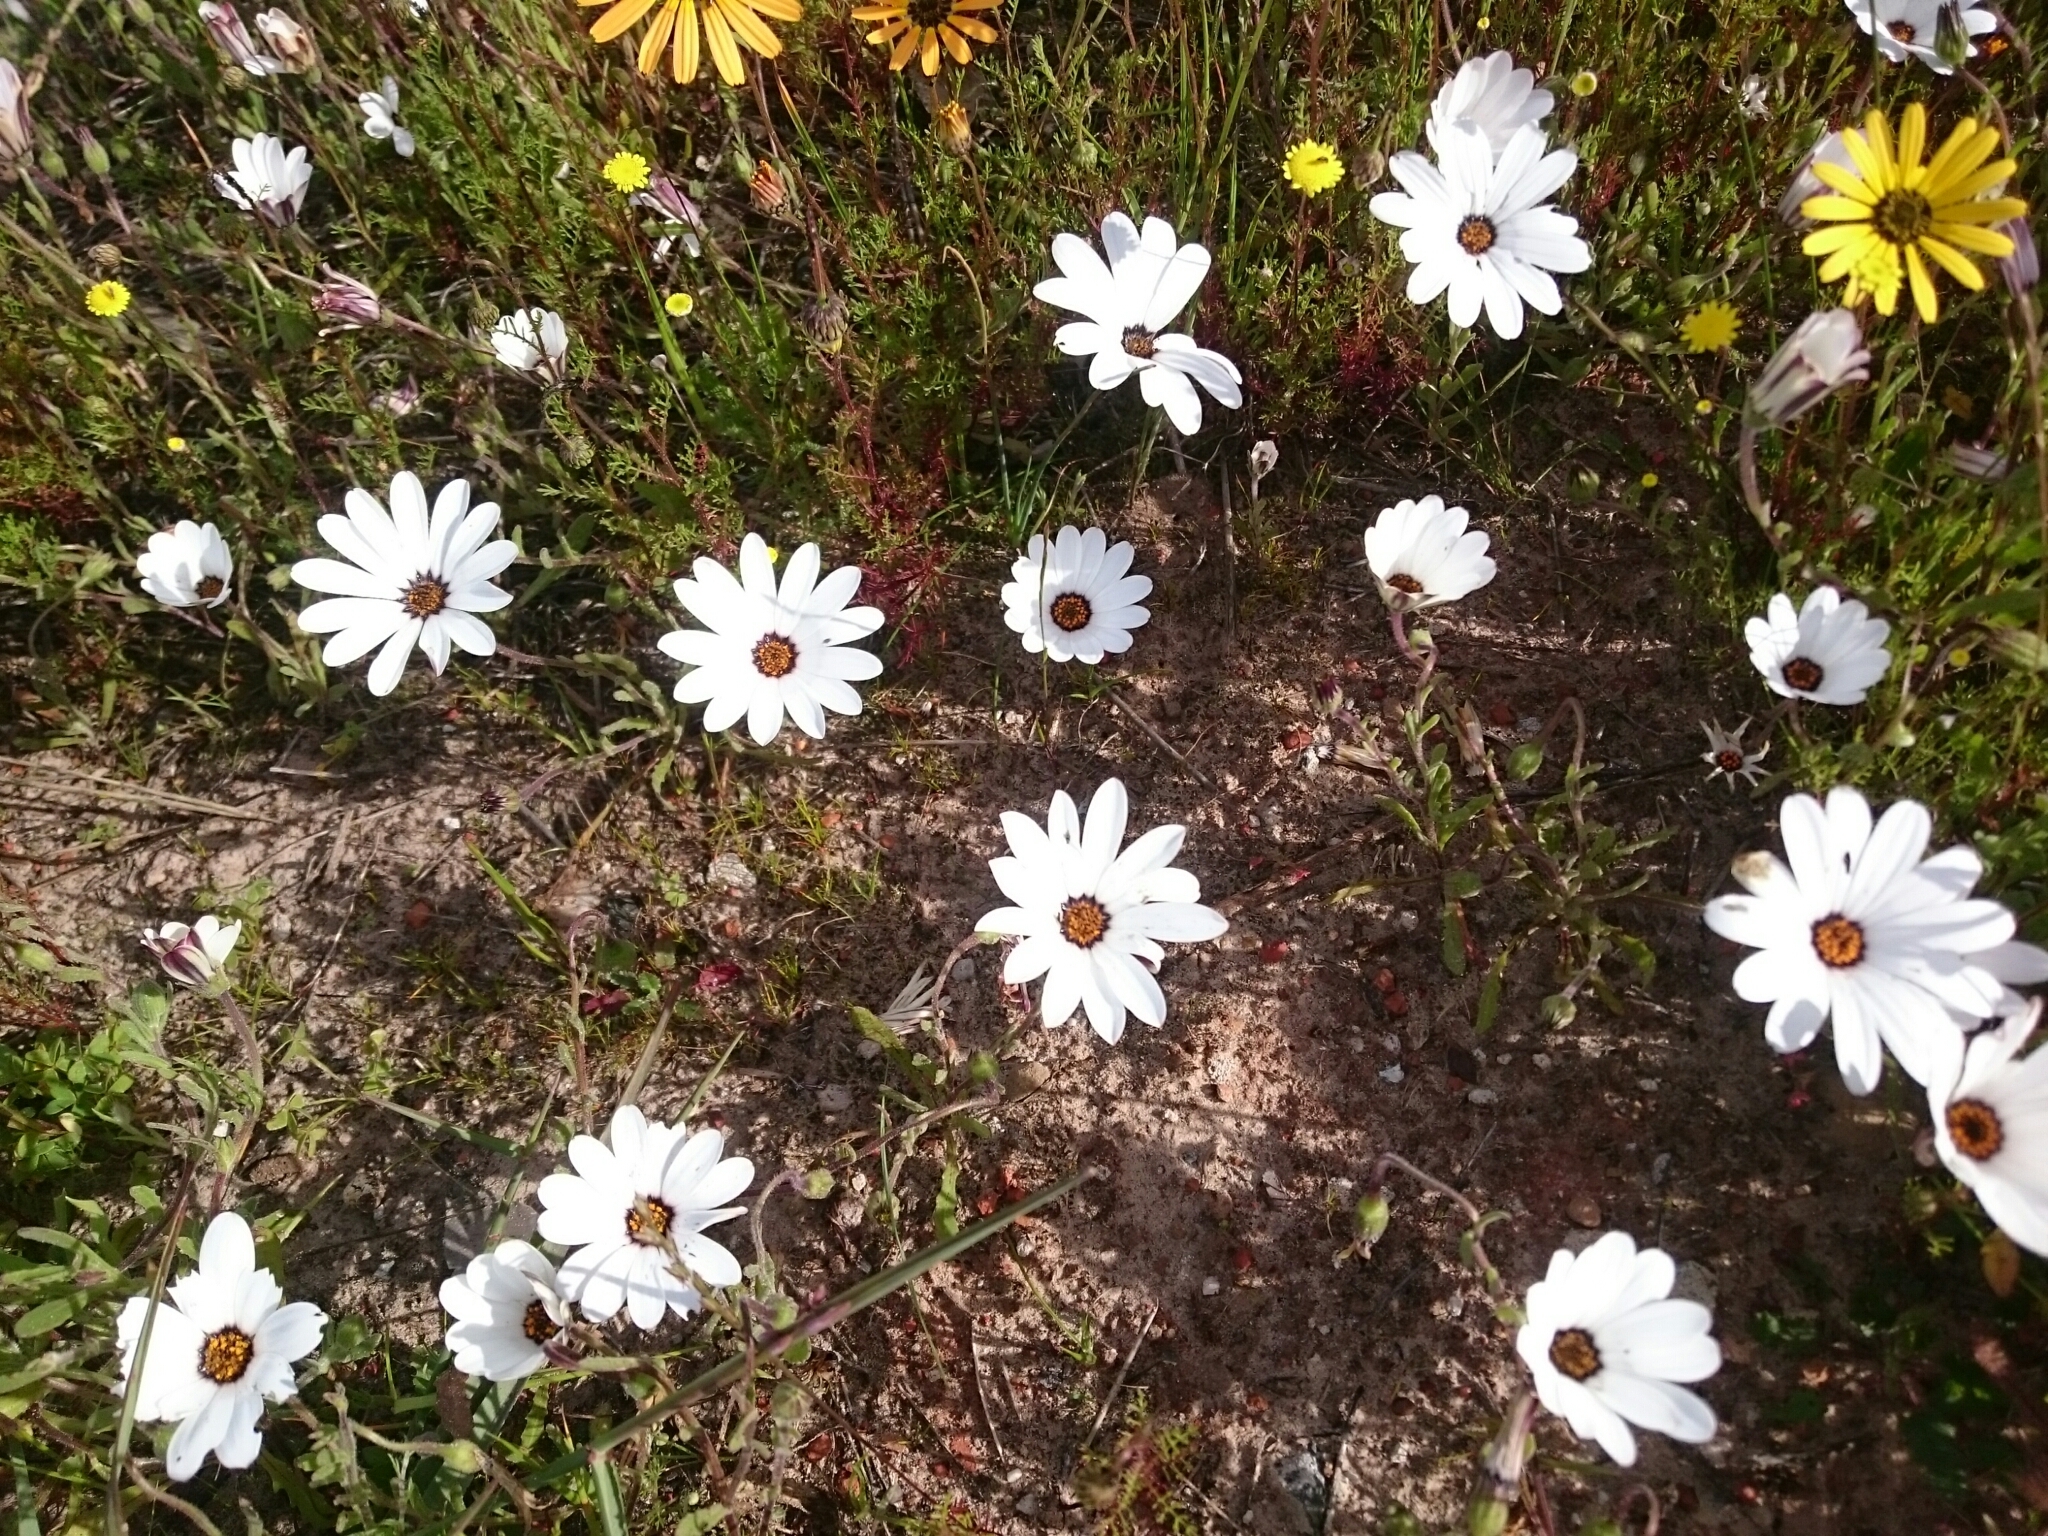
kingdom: Plantae
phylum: Tracheophyta
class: Magnoliopsida
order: Asterales
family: Asteraceae
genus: Dimorphotheca
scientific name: Dimorphotheca pluvialis
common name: Weather prophet
